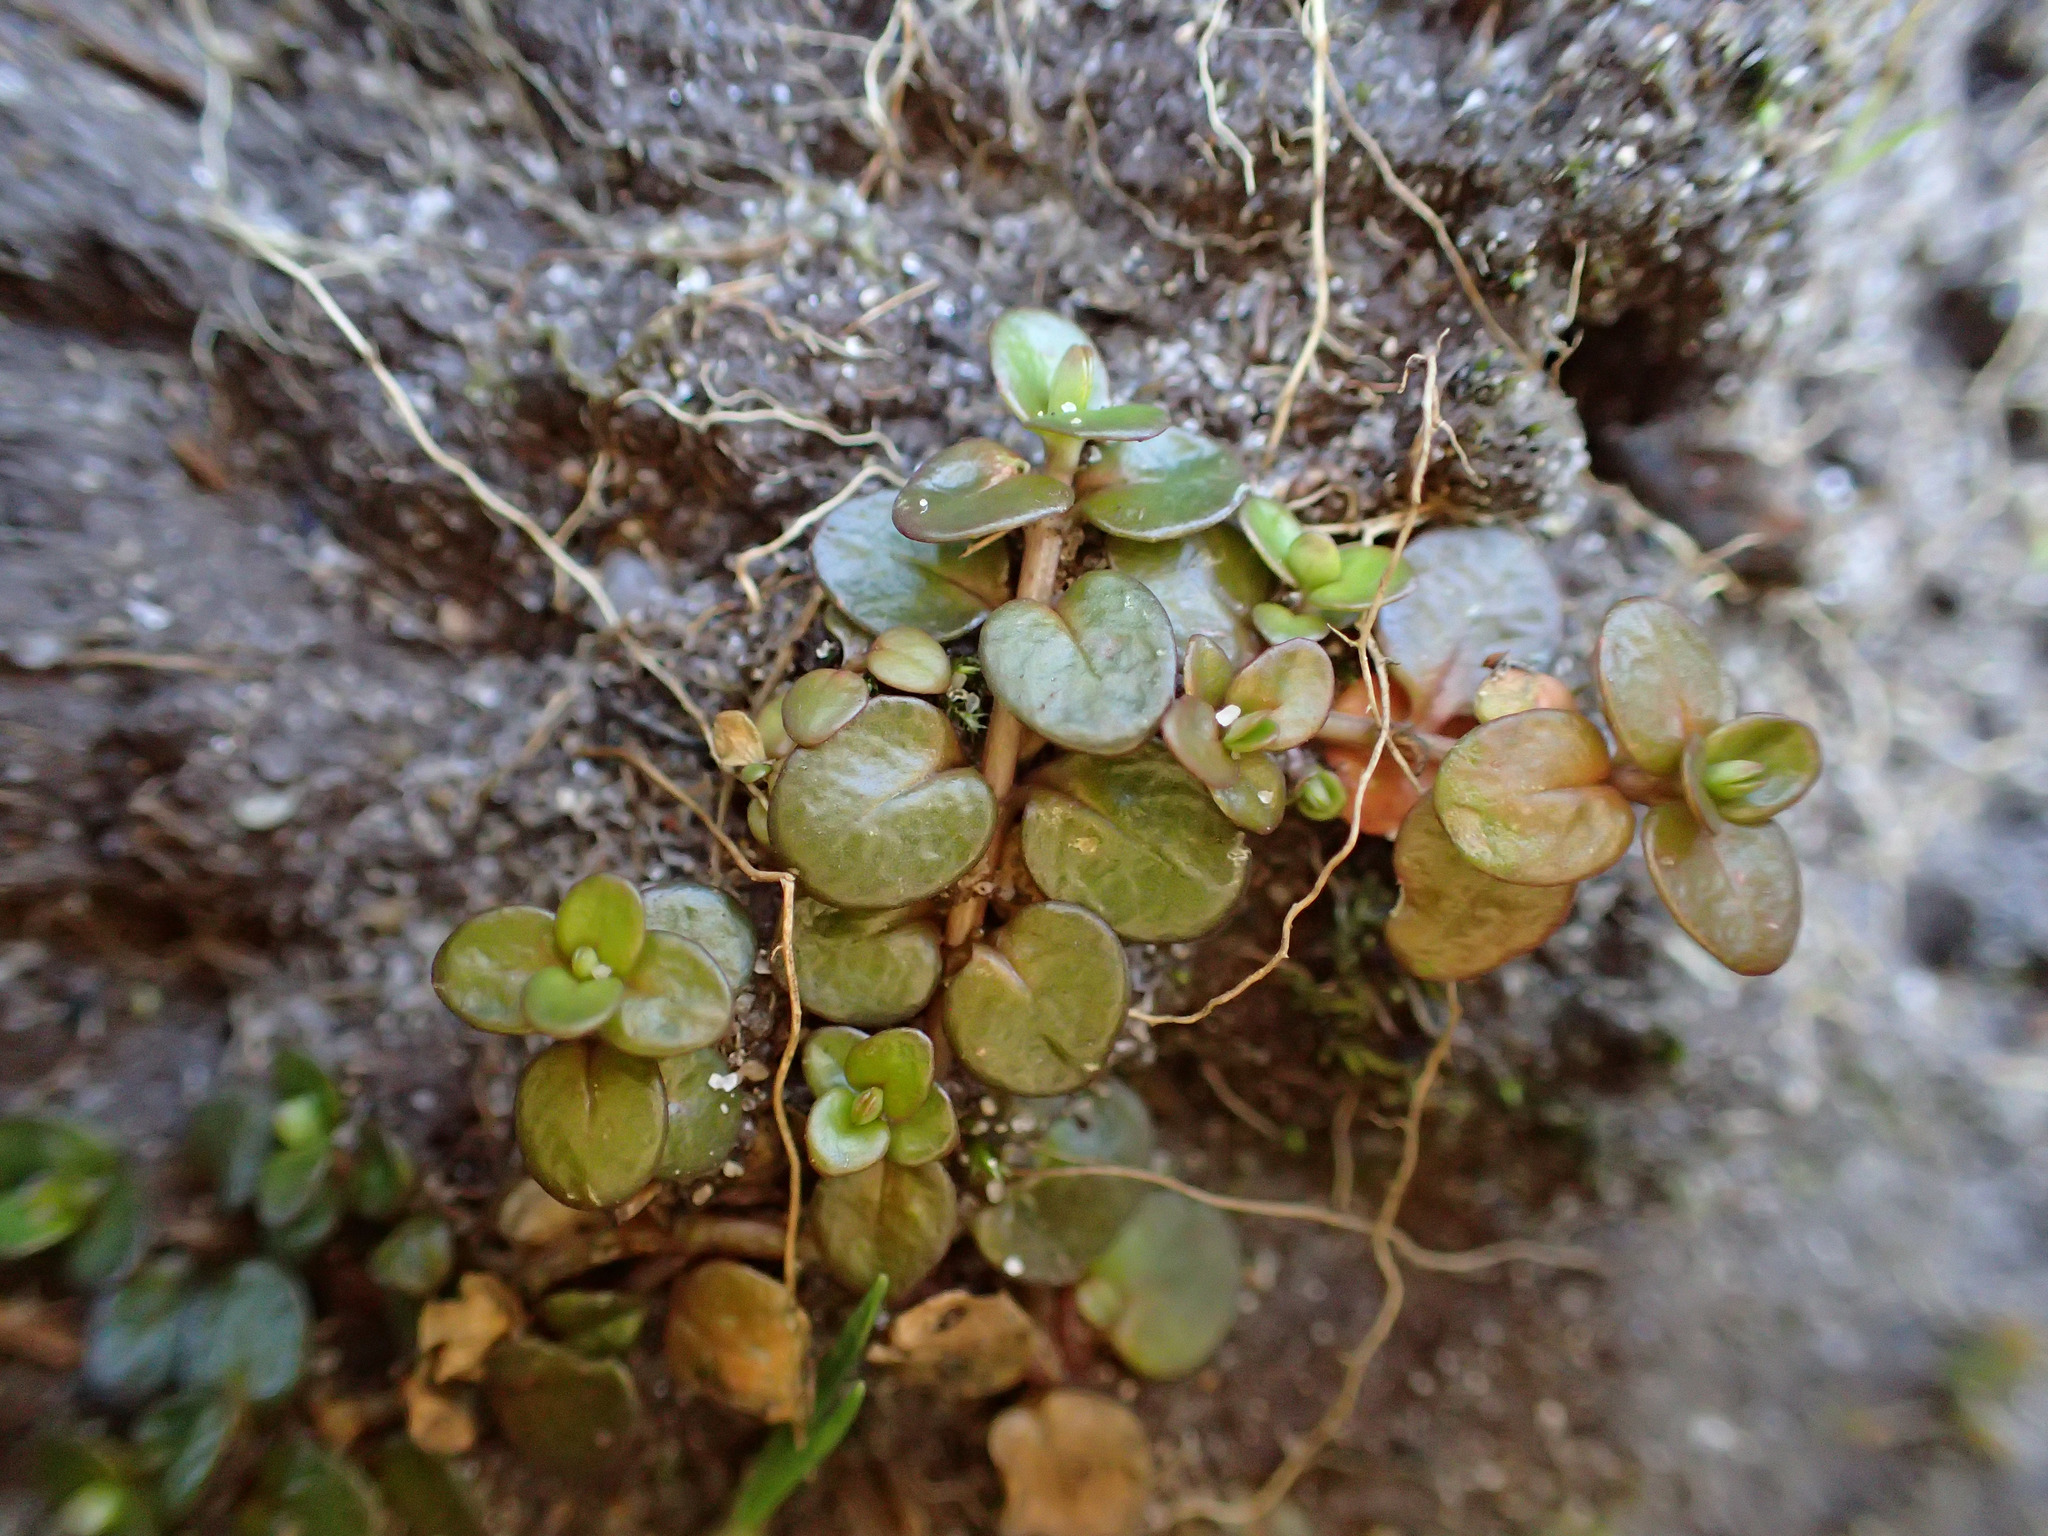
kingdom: Plantae
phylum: Tracheophyta
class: Magnoliopsida
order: Myrtales
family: Onagraceae
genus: Epilobium
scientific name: Epilobium komarovianum
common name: Bronzy willowherb
